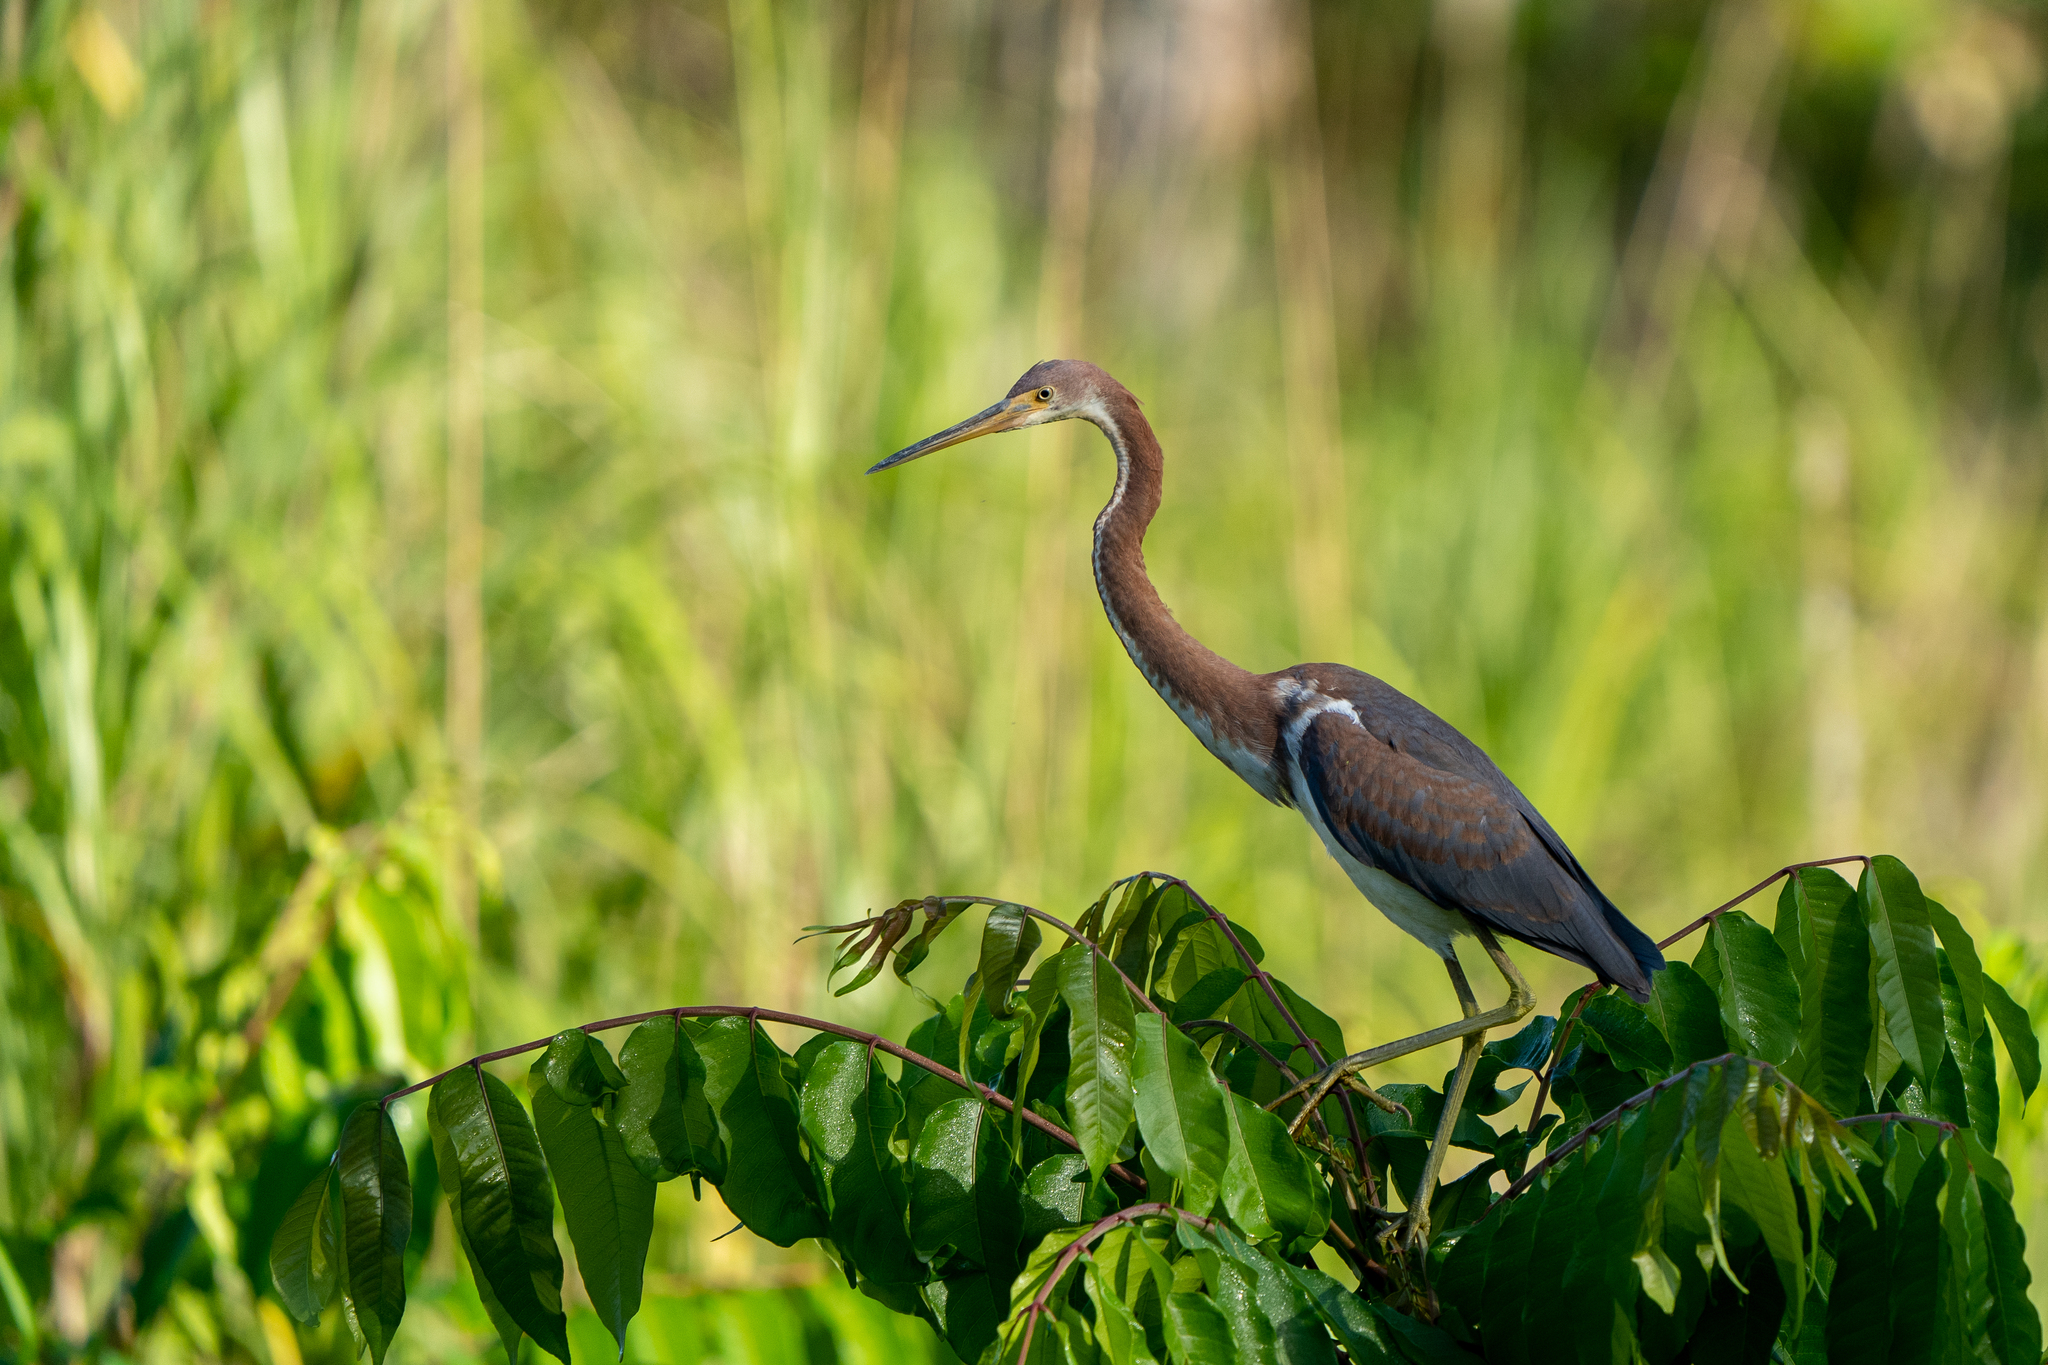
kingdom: Animalia
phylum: Chordata
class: Aves
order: Pelecaniformes
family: Ardeidae
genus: Egretta
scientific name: Egretta tricolor
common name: Tricolored heron
